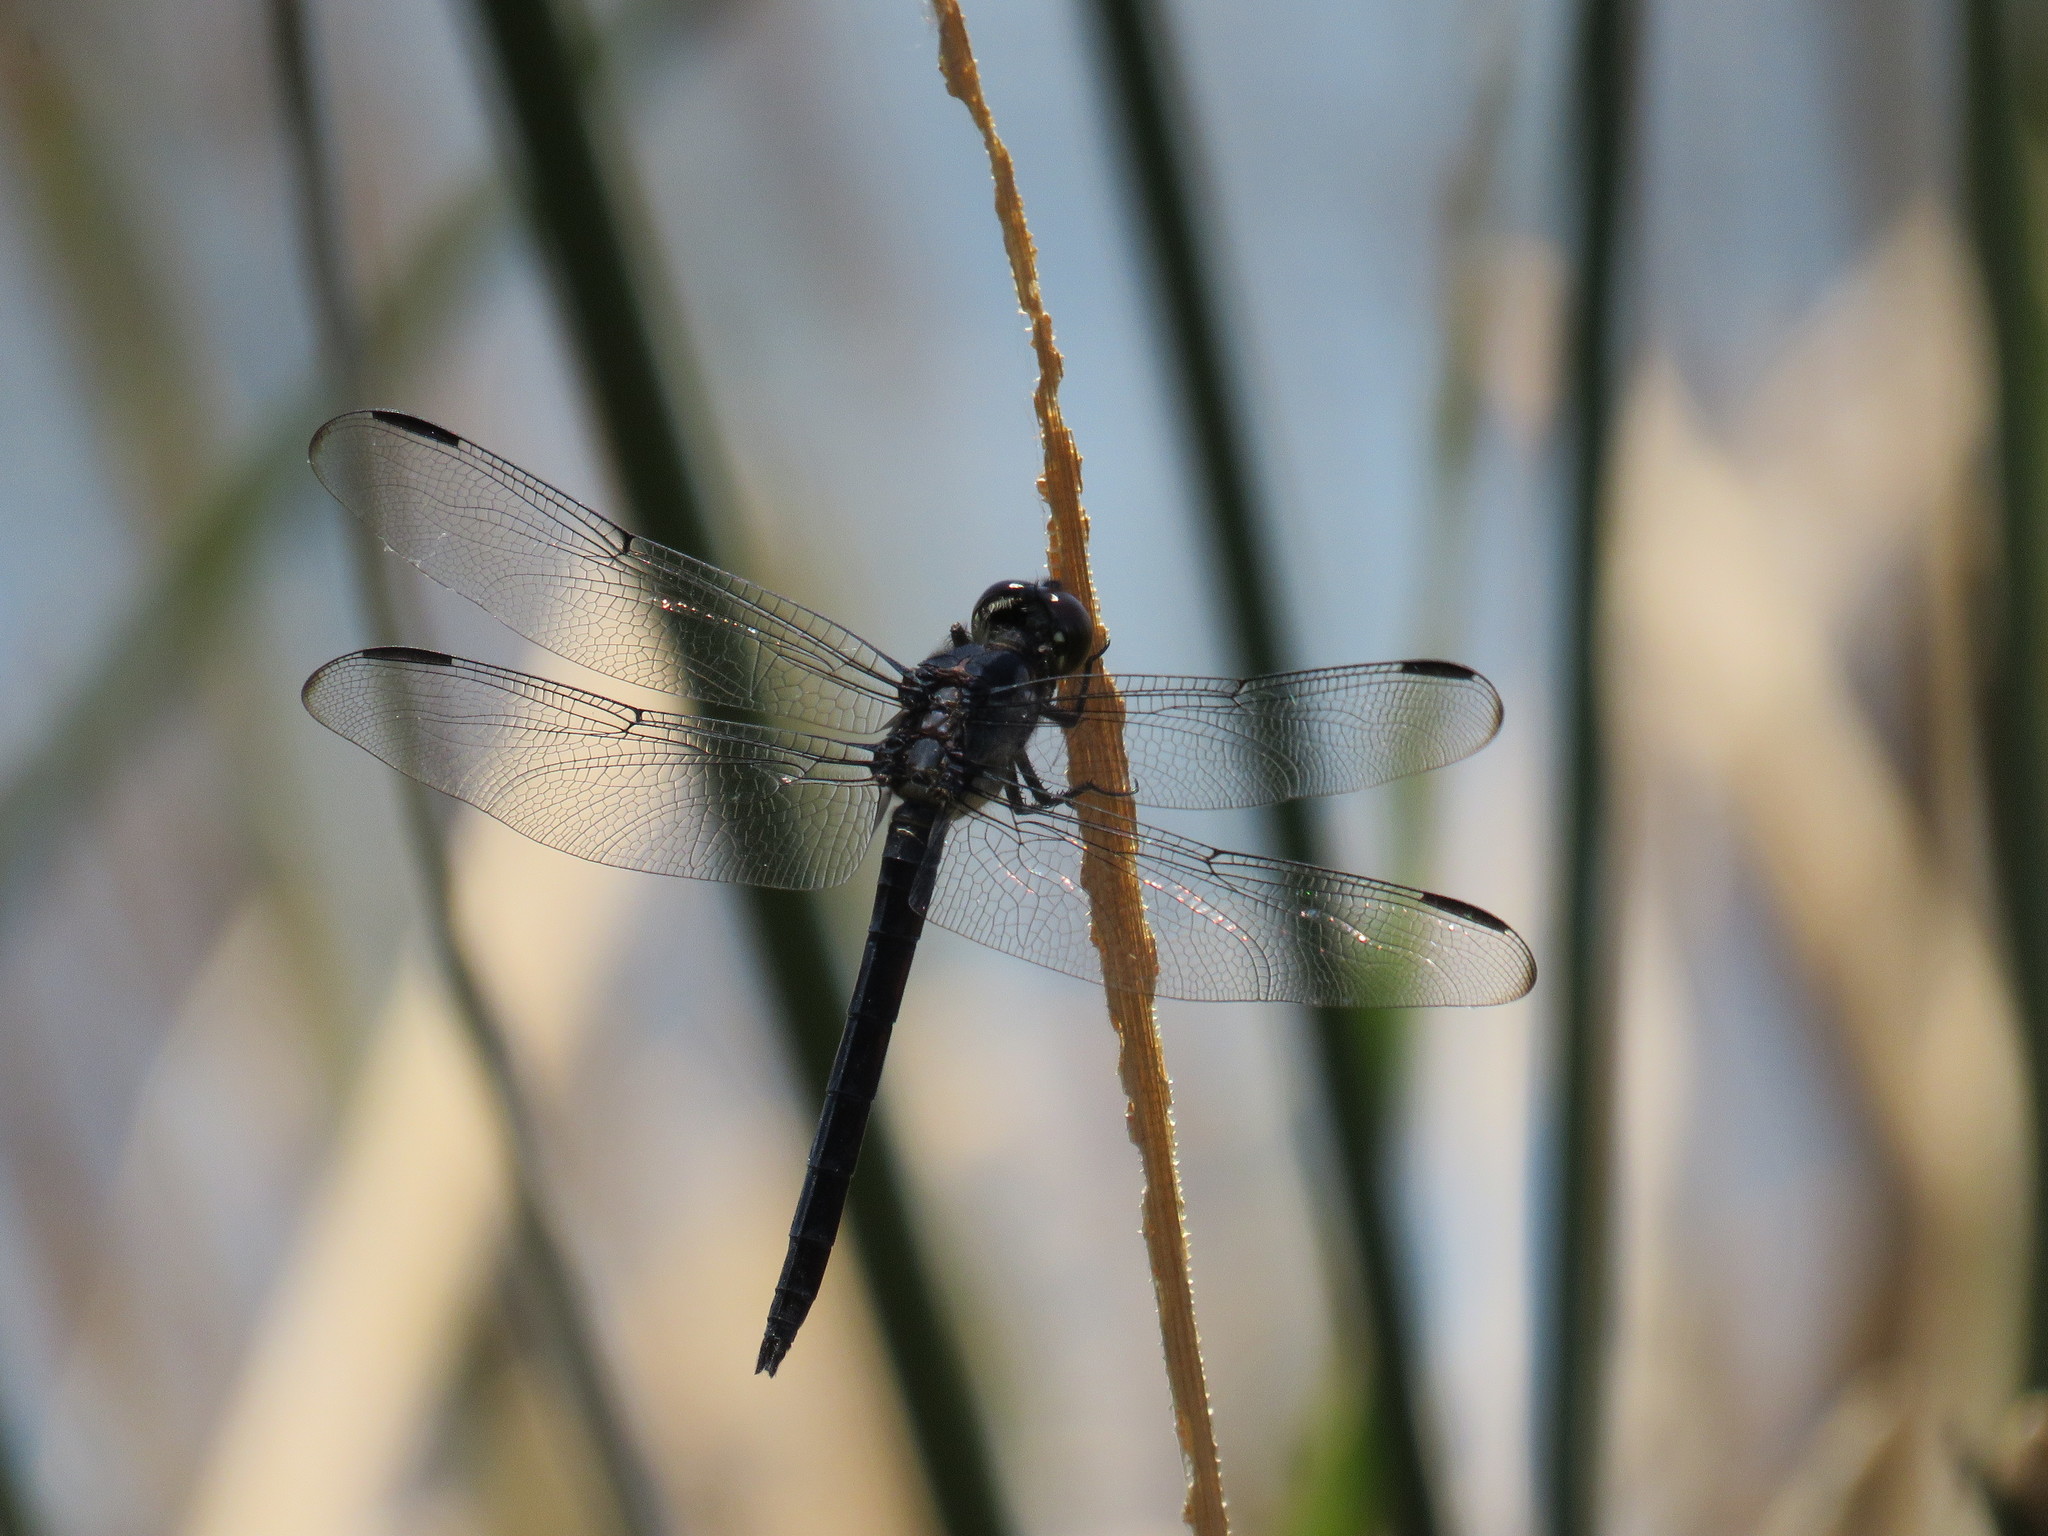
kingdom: Animalia
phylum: Arthropoda
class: Insecta
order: Odonata
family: Libellulidae
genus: Libellula
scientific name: Libellula incesta
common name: Slaty skimmer
